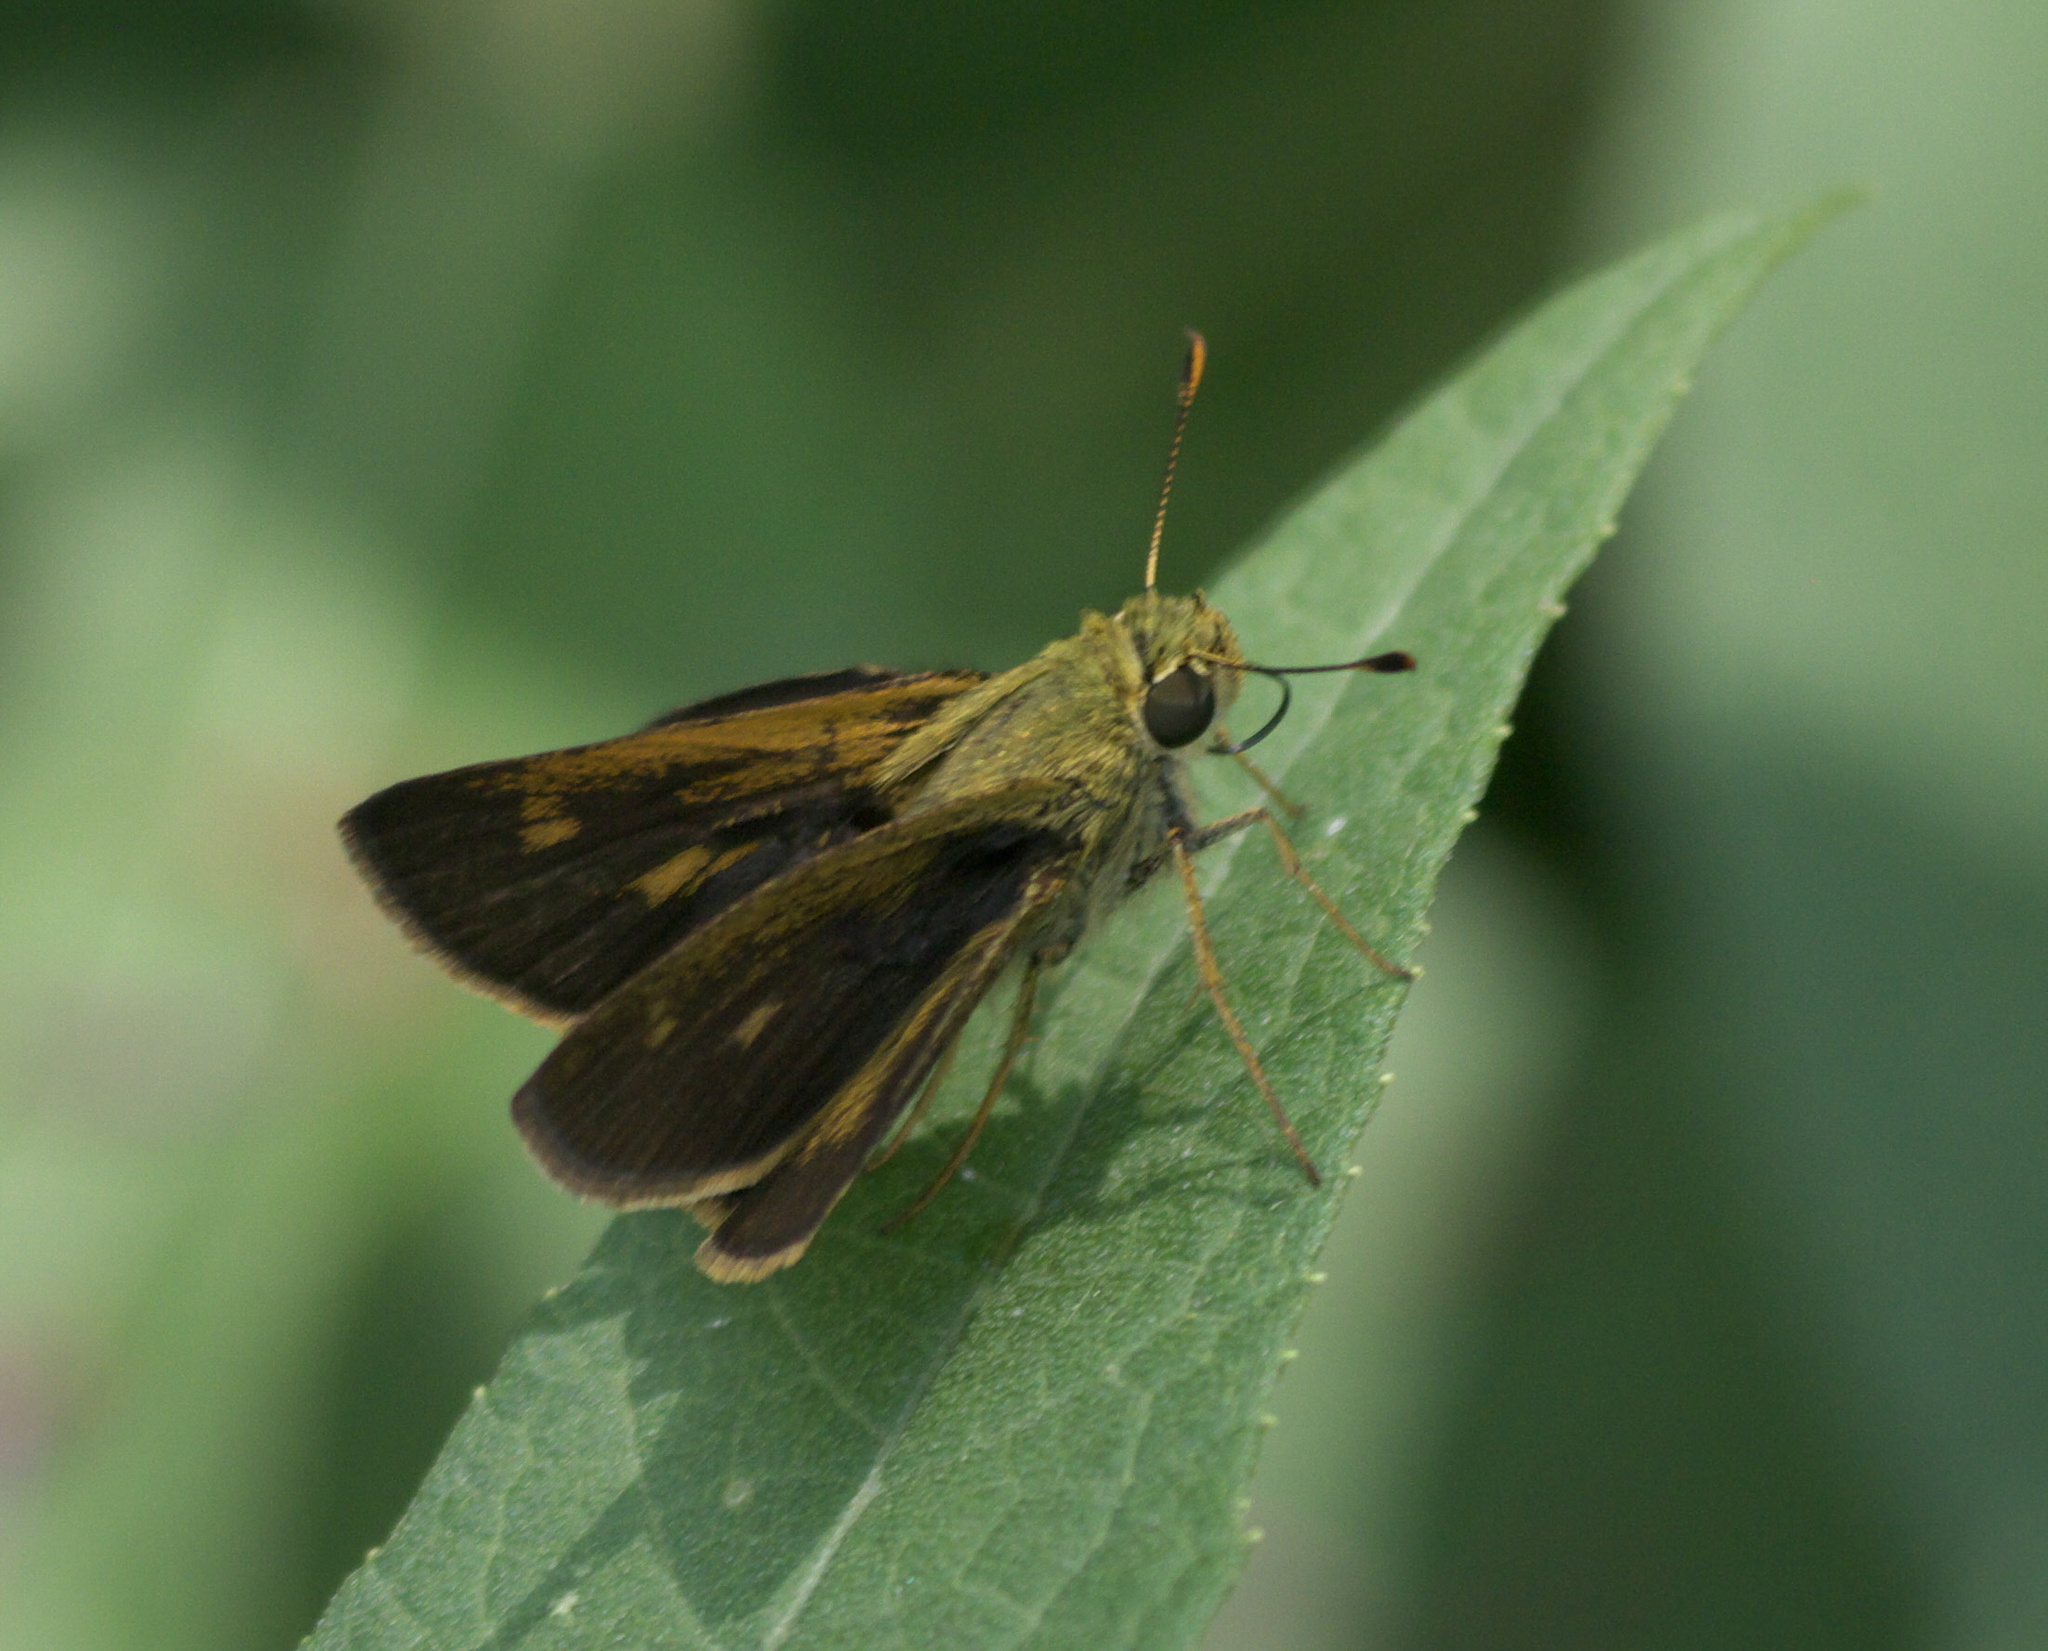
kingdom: Animalia
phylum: Arthropoda
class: Insecta
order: Lepidoptera
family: Hesperiidae
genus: Polites
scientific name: Polites egeremet
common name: Northern broken-dash
